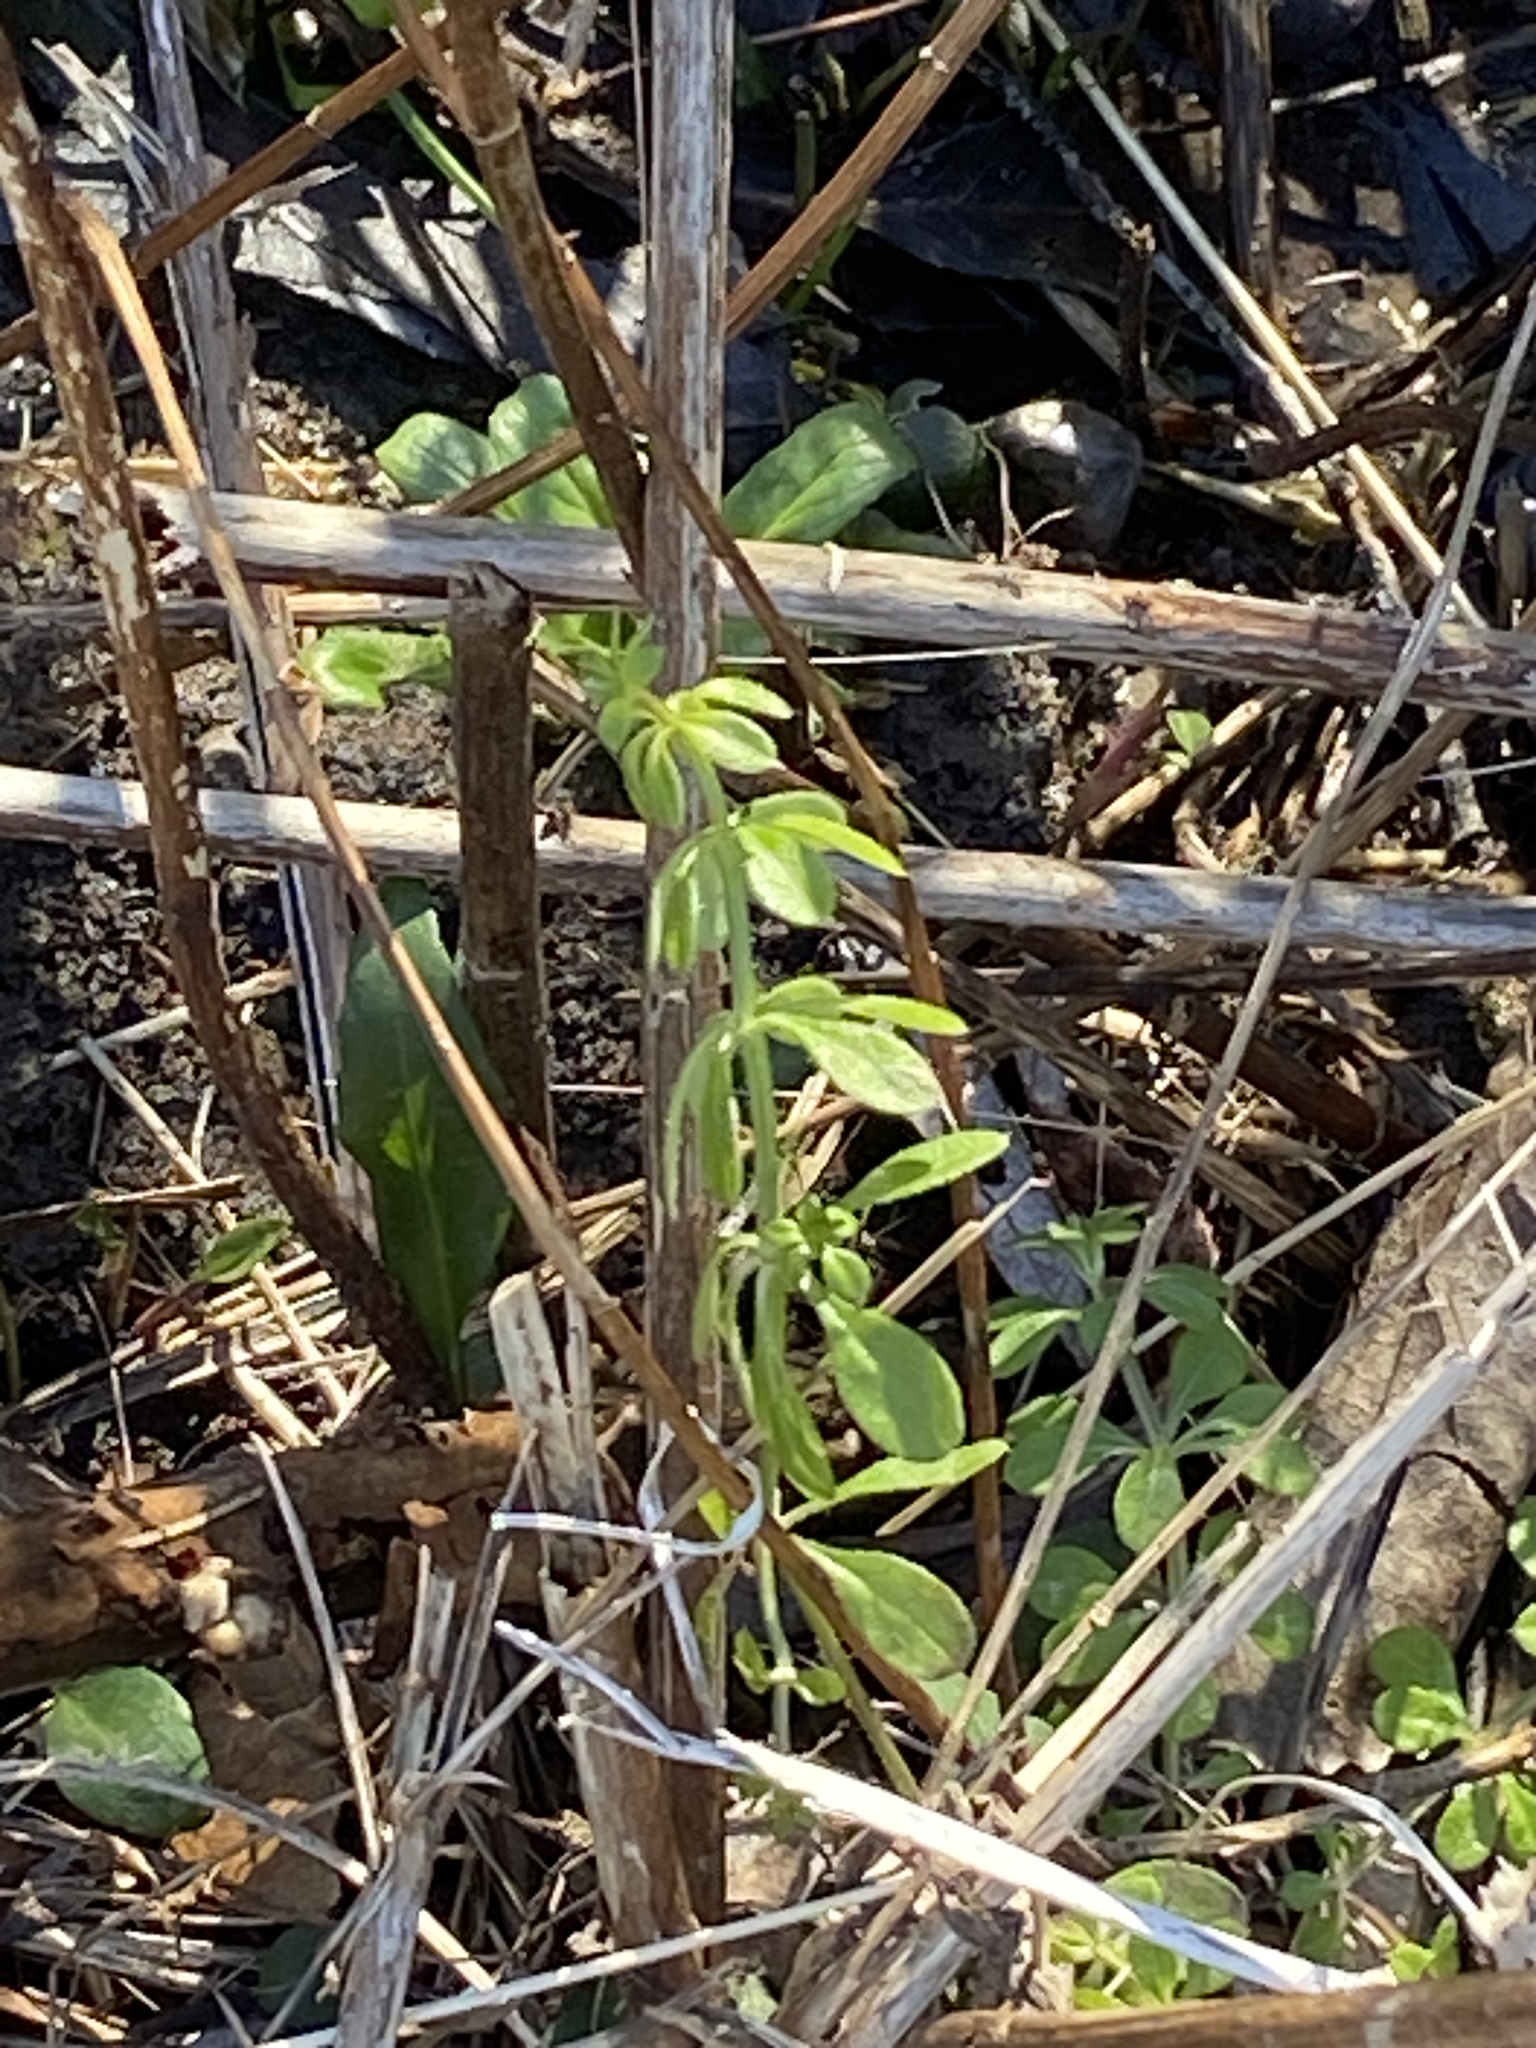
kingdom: Plantae
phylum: Tracheophyta
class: Magnoliopsida
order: Gentianales
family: Rubiaceae
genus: Galium
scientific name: Galium aparine
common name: Cleavers
